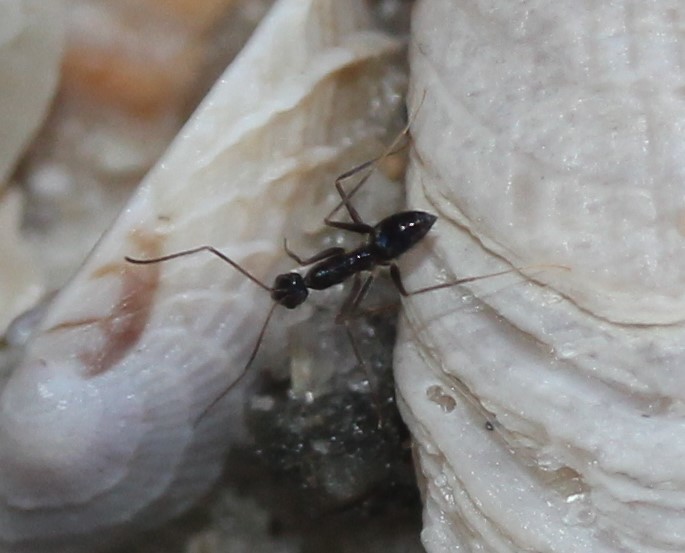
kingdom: Animalia
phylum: Arthropoda
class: Insecta
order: Hymenoptera
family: Formicidae
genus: Paratrechina
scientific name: Paratrechina longicornis
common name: Longhorned crazy ant
